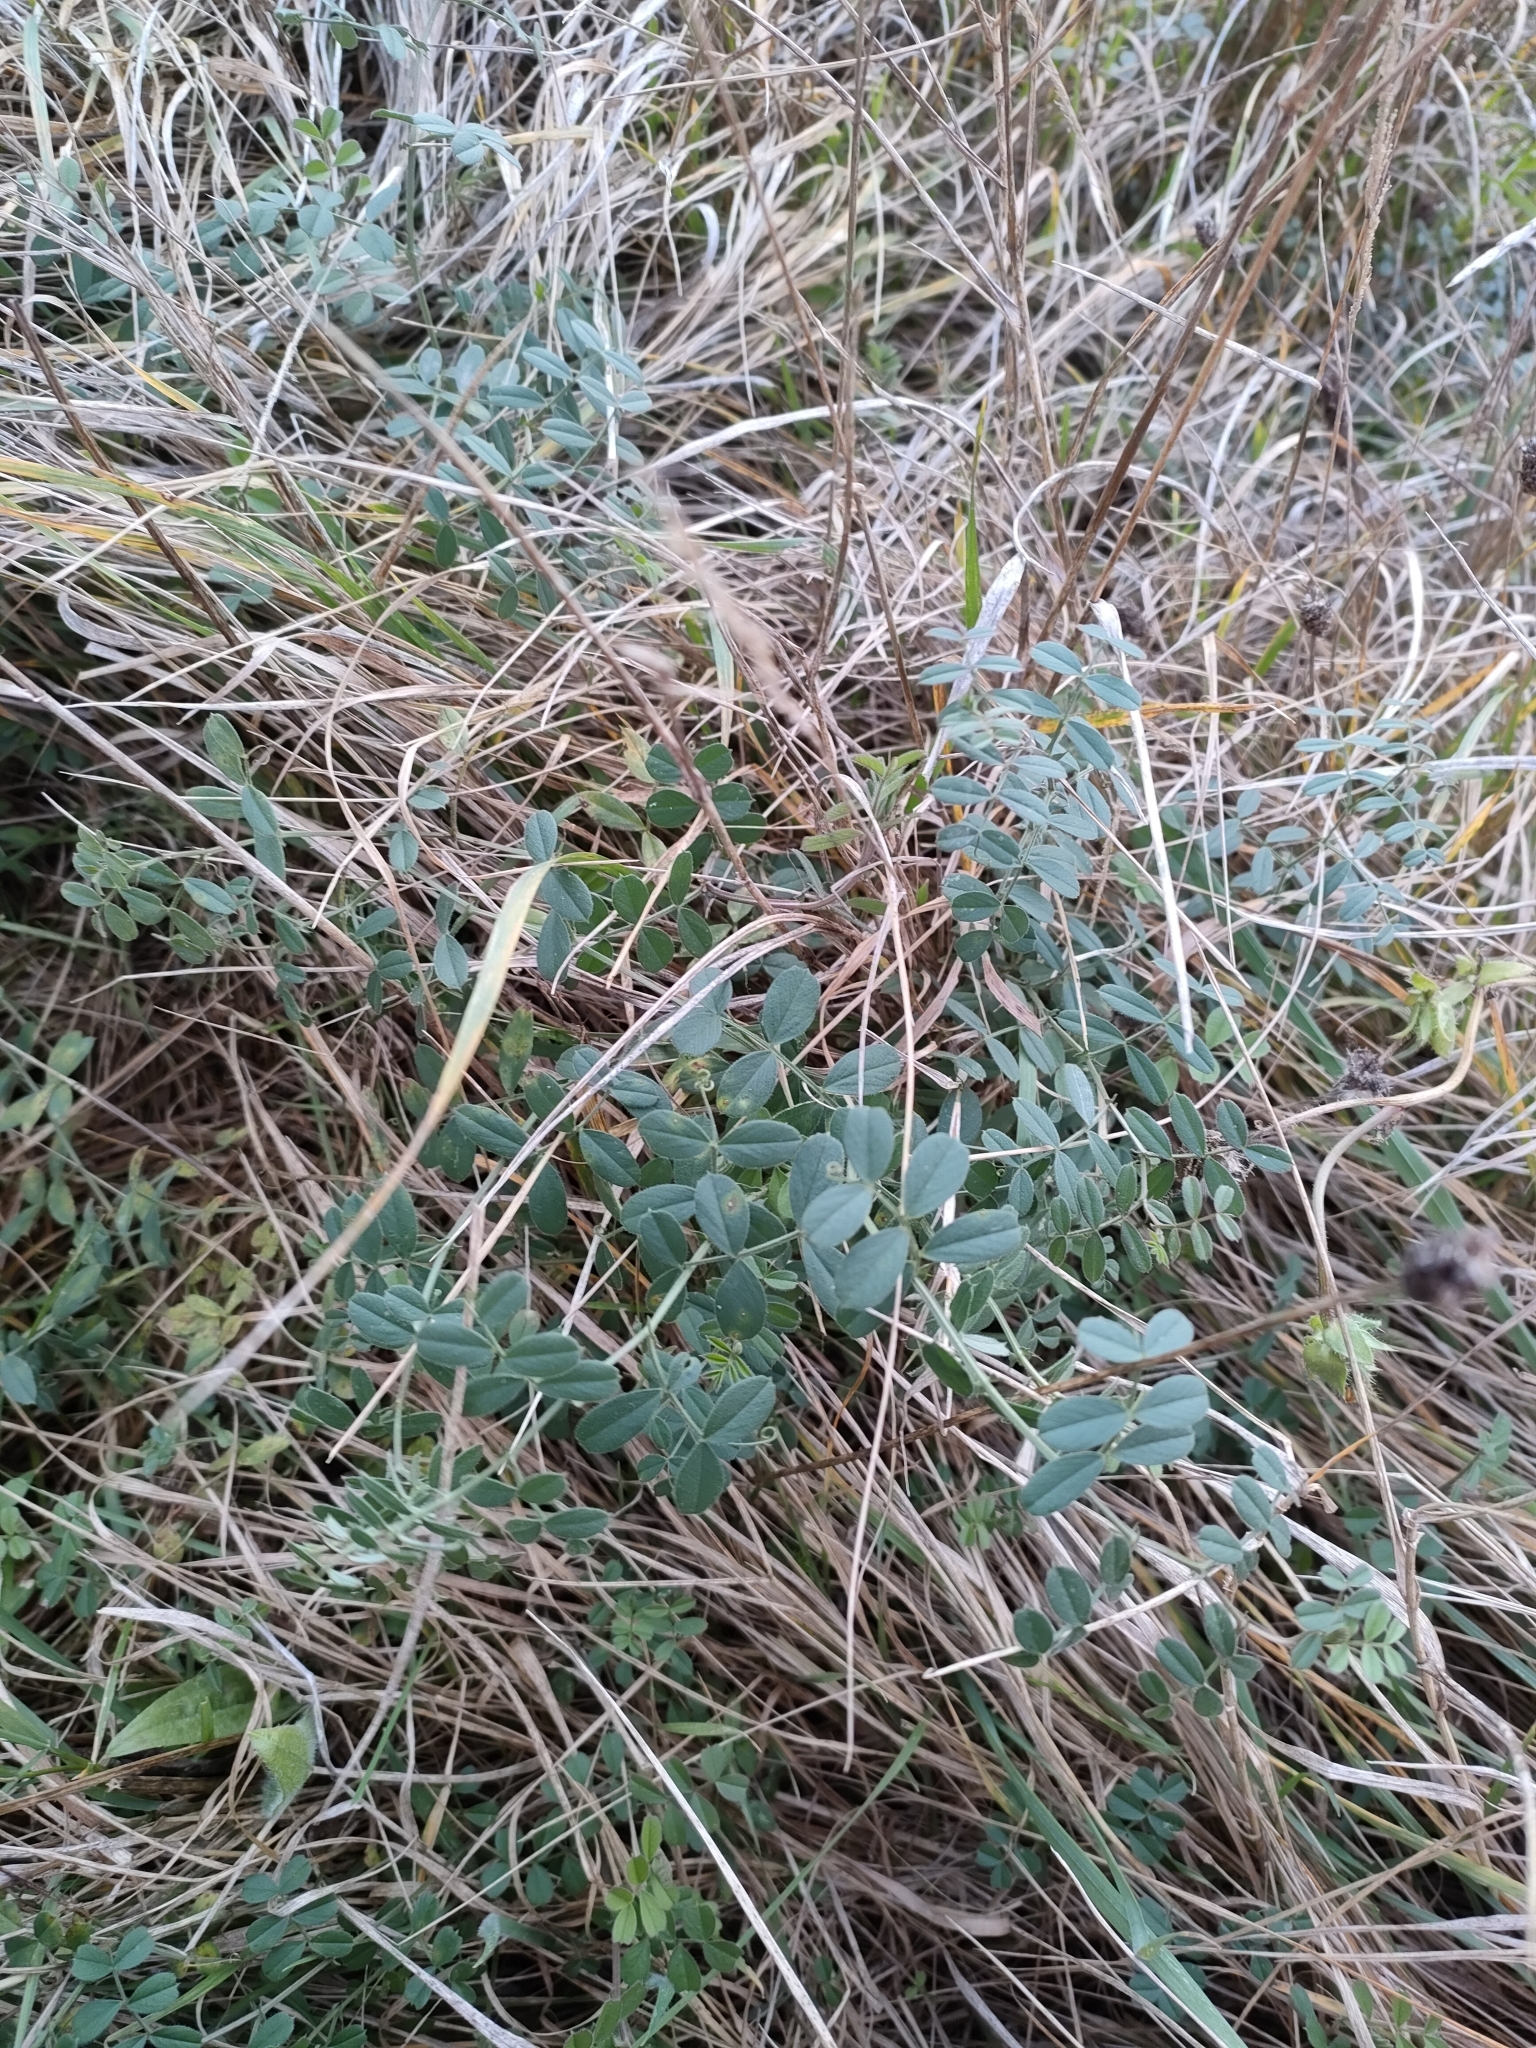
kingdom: Plantae
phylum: Tracheophyta
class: Magnoliopsida
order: Fabales
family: Fabaceae
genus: Vicia
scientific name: Vicia sativa
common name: Garden vetch
